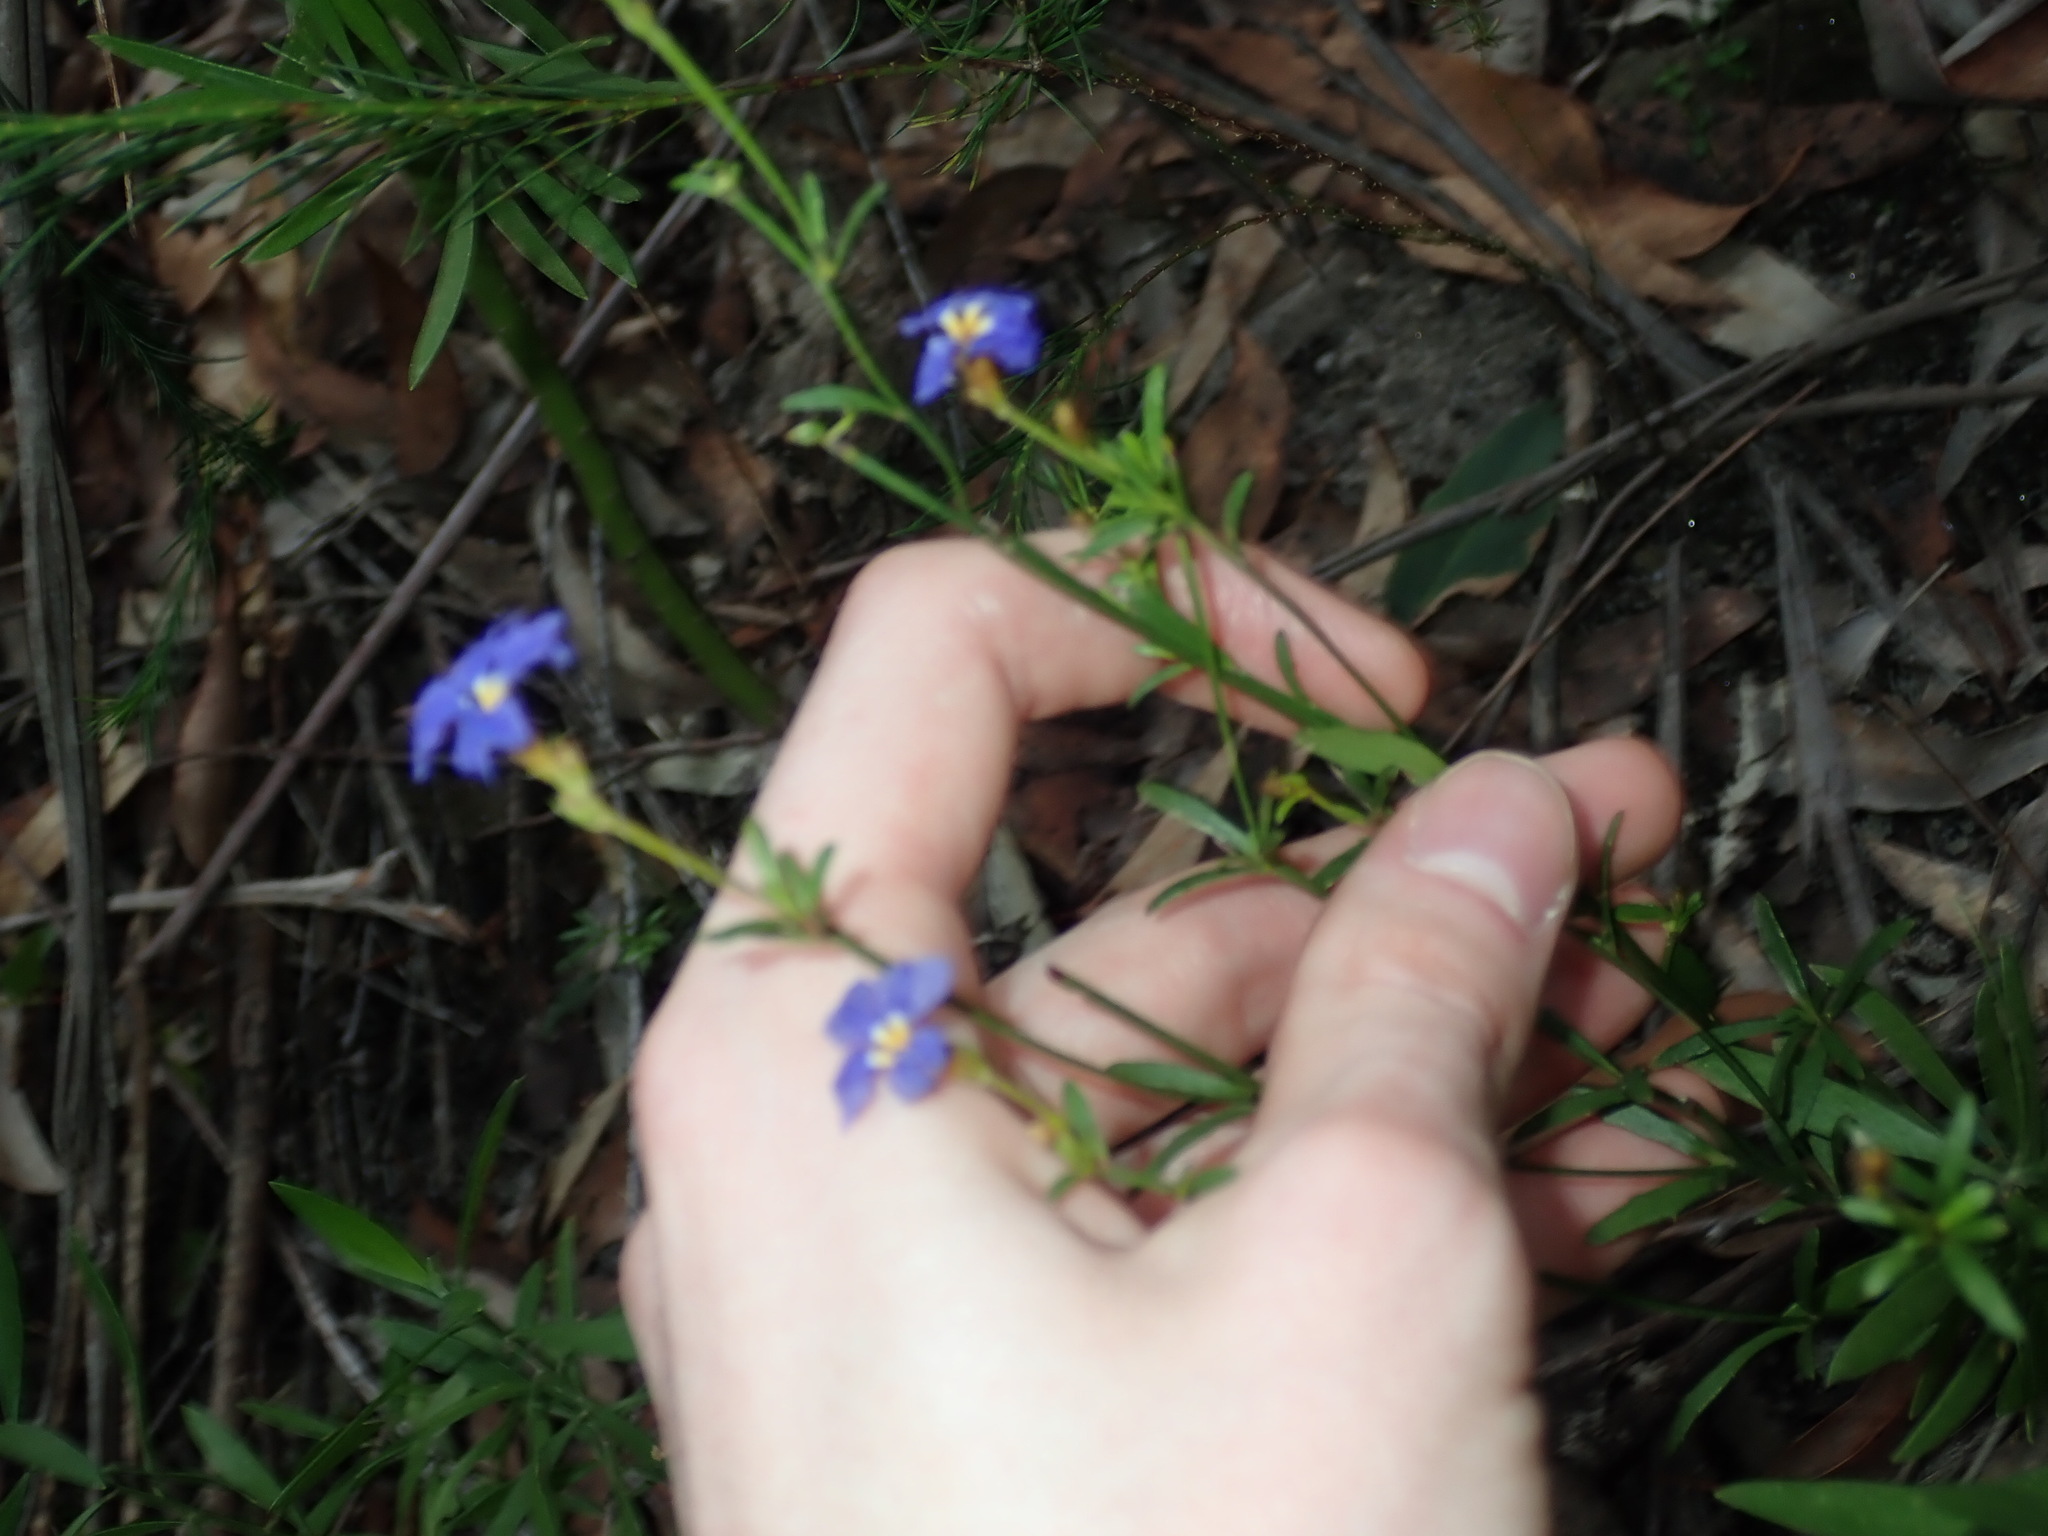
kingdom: Plantae
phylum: Tracheophyta
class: Magnoliopsida
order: Asterales
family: Goodeniaceae
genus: Dampiera
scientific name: Dampiera stricta
